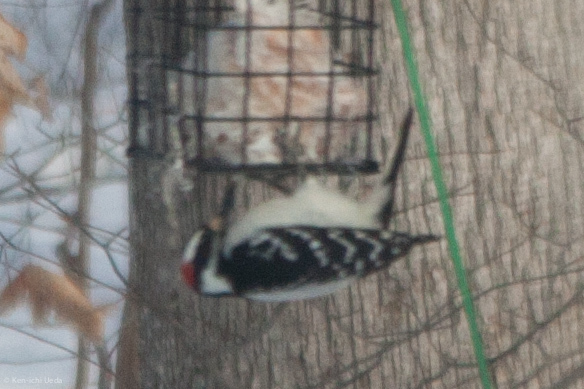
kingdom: Animalia
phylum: Chordata
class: Aves
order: Piciformes
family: Picidae
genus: Leuconotopicus
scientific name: Leuconotopicus villosus
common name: Hairy woodpecker
